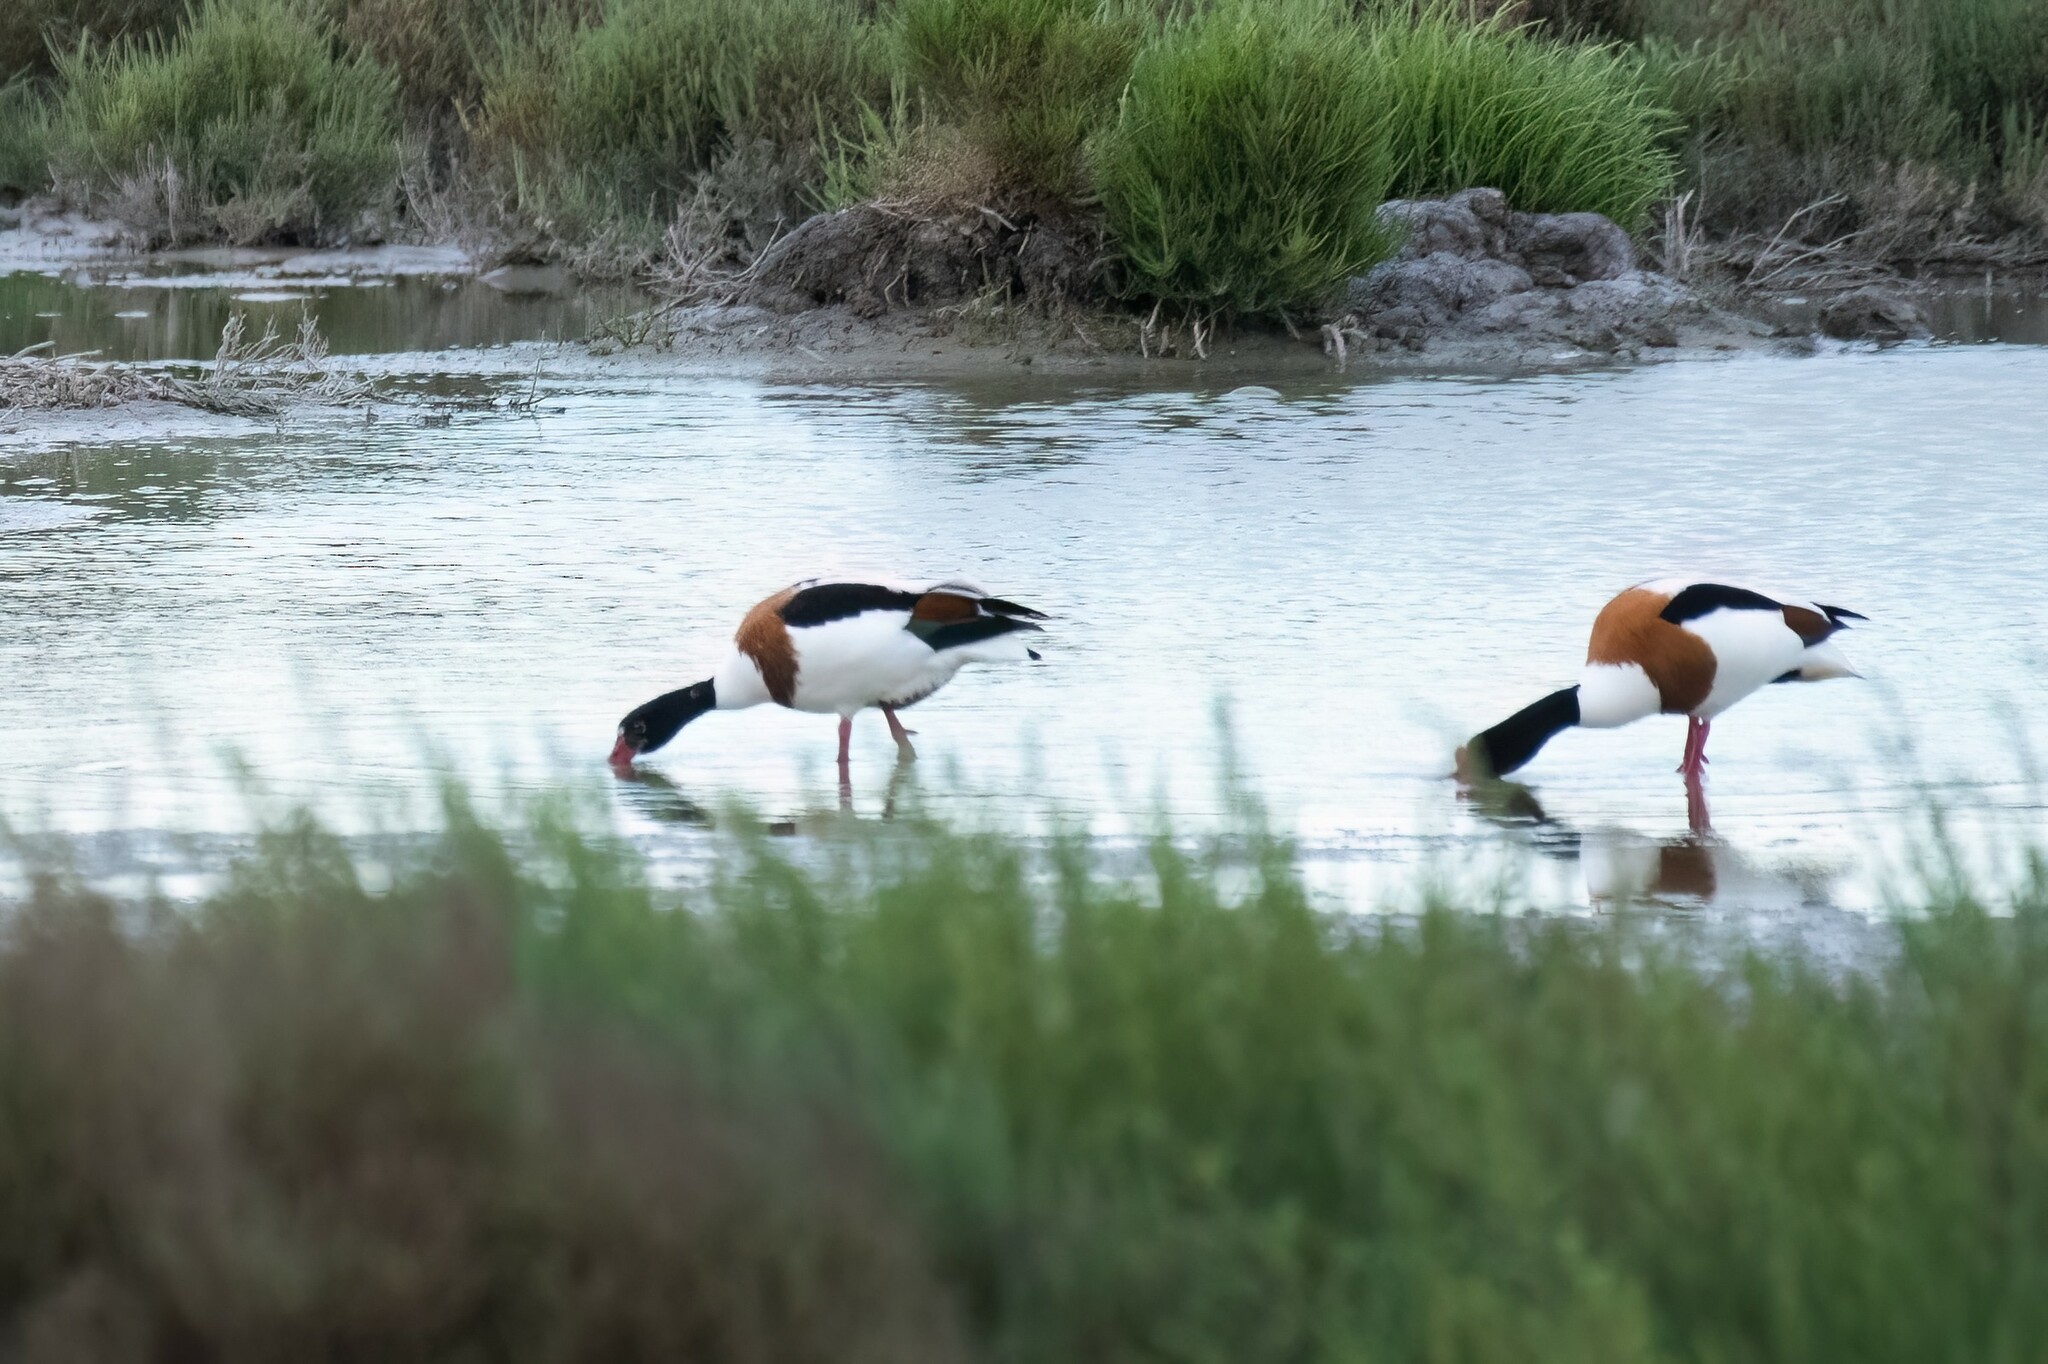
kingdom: Animalia
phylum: Chordata
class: Aves
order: Anseriformes
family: Anatidae
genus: Tadorna
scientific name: Tadorna tadorna
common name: Common shelduck
